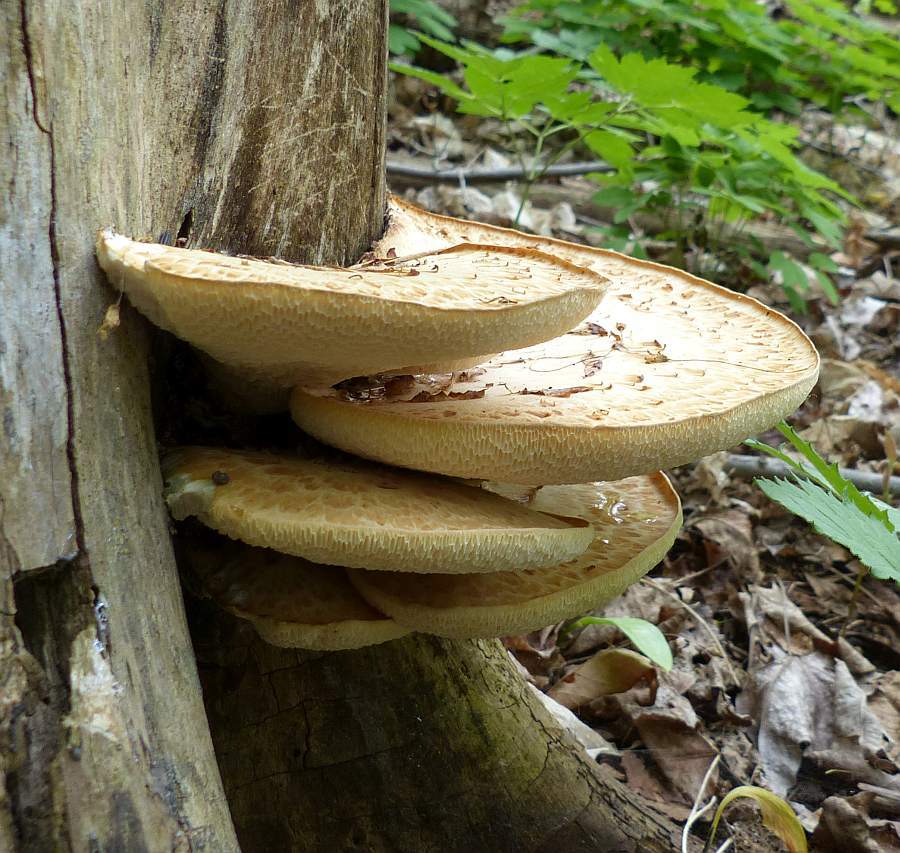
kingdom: Fungi
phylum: Basidiomycota
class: Agaricomycetes
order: Polyporales
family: Polyporaceae
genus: Cerioporus
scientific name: Cerioporus squamosus
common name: Dryad's saddle
